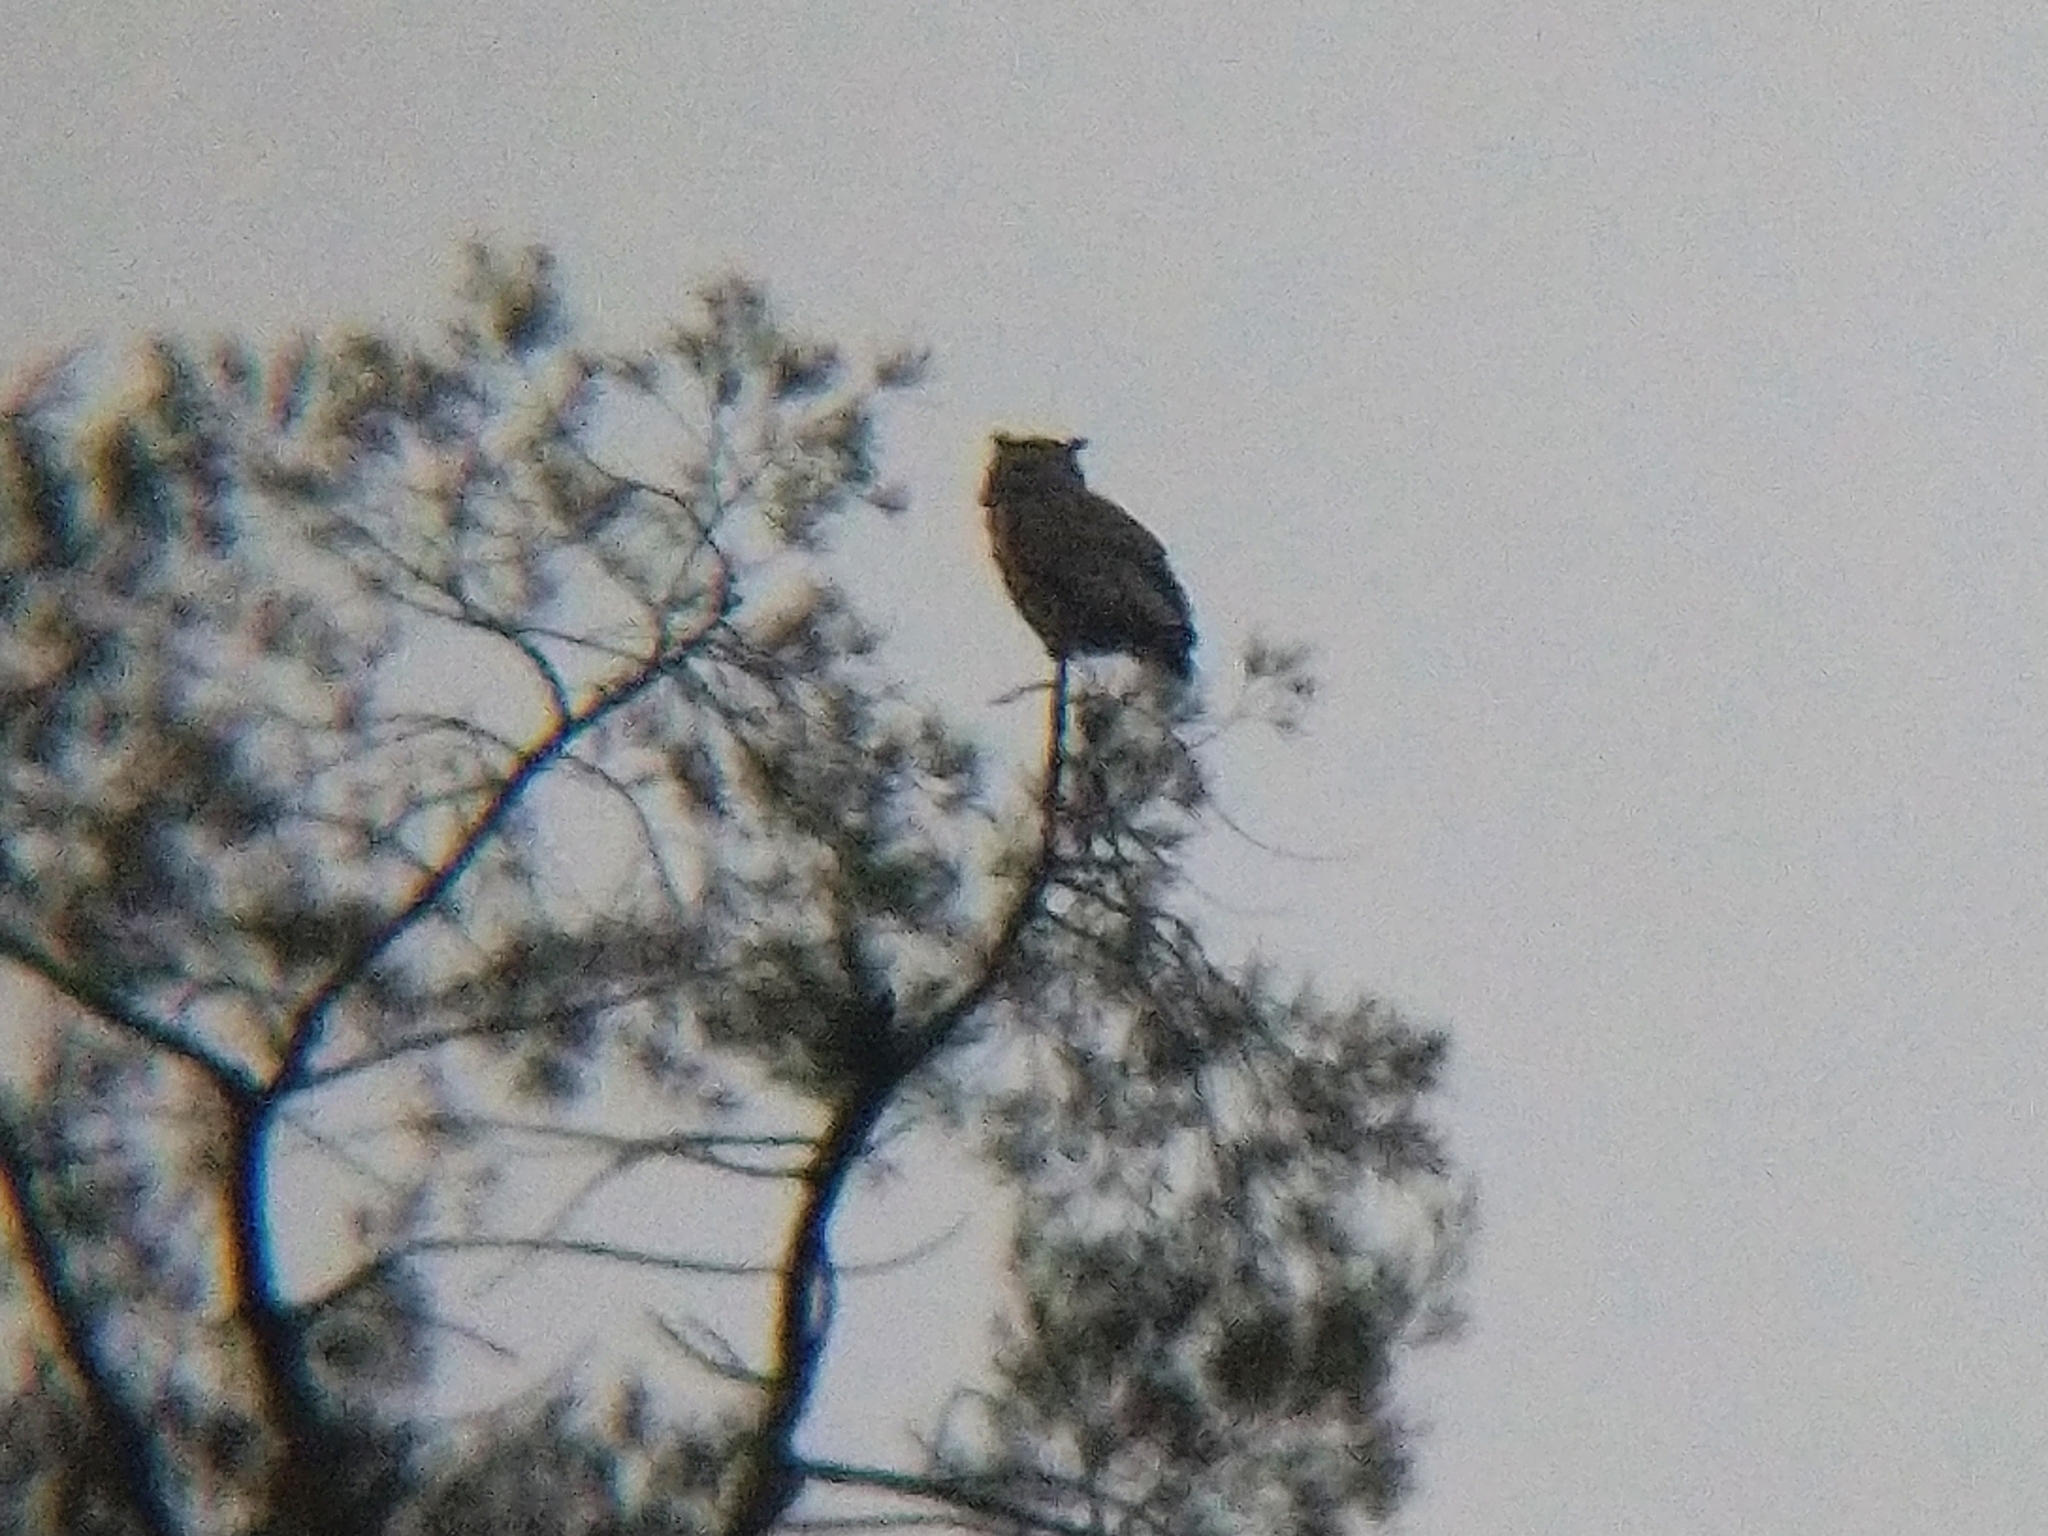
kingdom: Animalia
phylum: Chordata
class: Aves
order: Strigiformes
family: Strigidae
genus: Bubo
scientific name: Bubo virginianus
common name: Great horned owl
